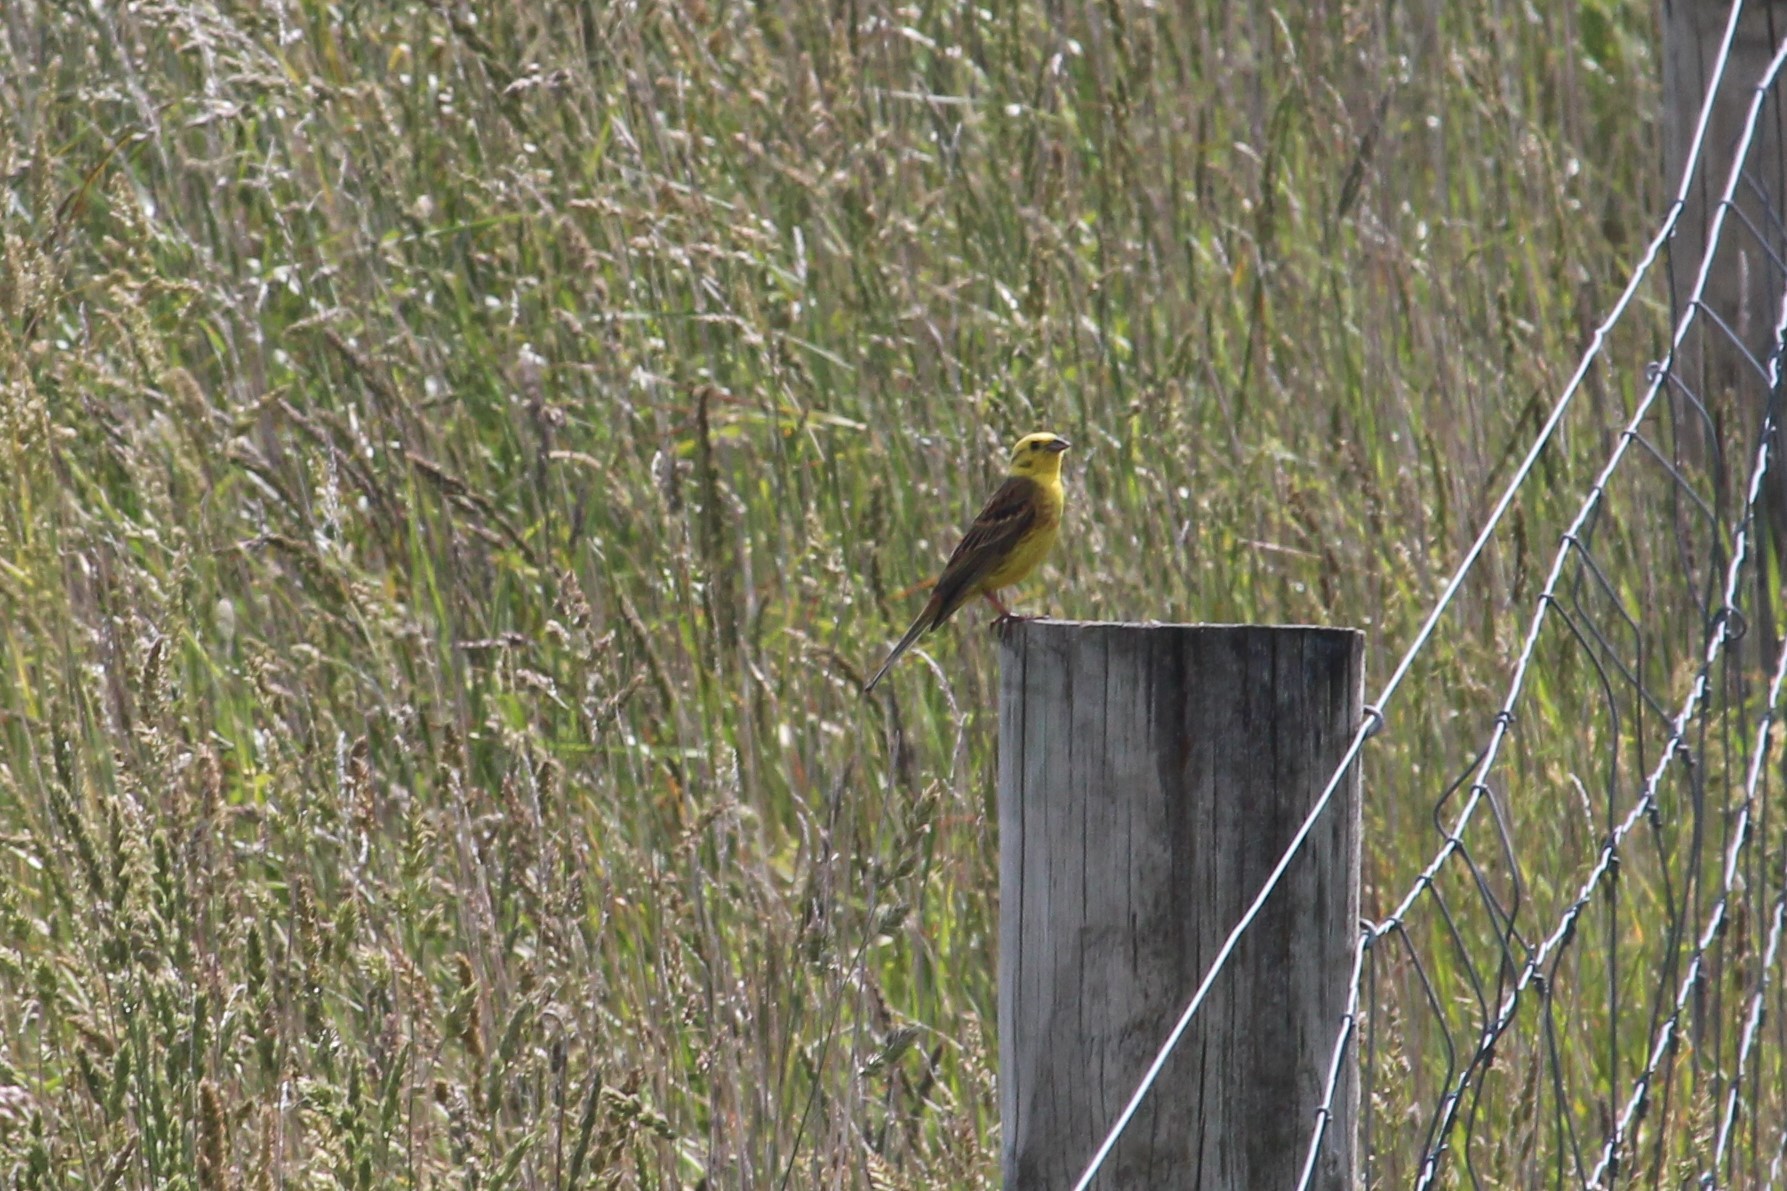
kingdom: Animalia
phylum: Chordata
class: Aves
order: Passeriformes
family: Emberizidae
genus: Emberiza
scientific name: Emberiza citrinella
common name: Yellowhammer
